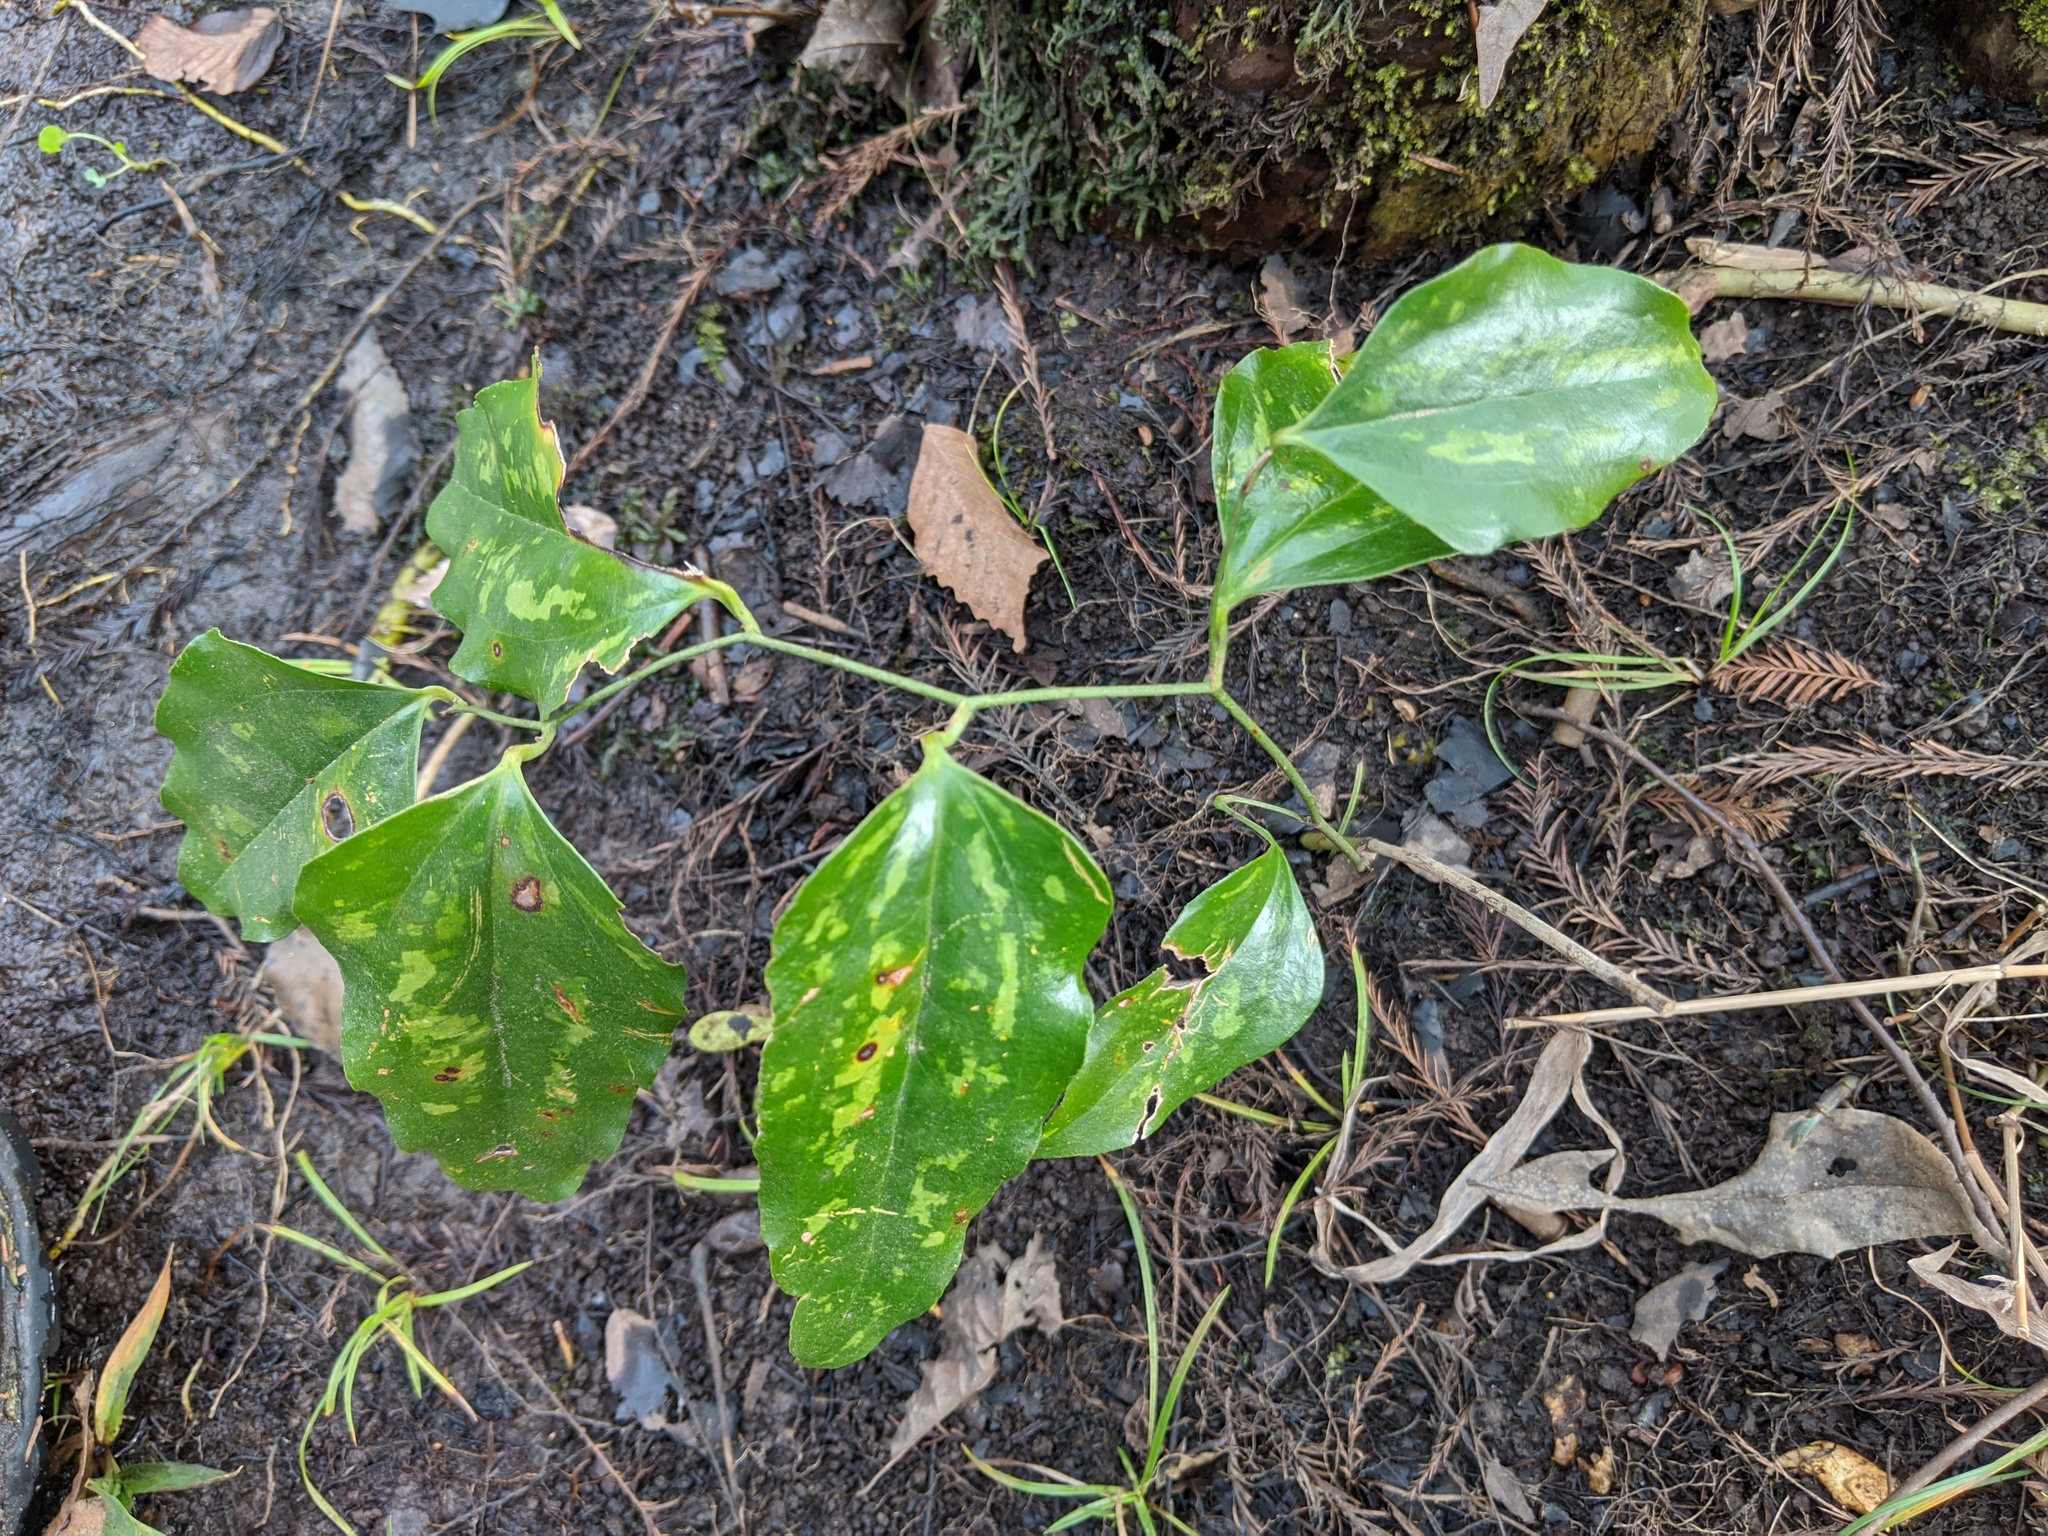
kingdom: Plantae
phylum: Tracheophyta
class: Liliopsida
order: Liliales
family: Smilacaceae
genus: Smilax
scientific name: Smilax maritima
